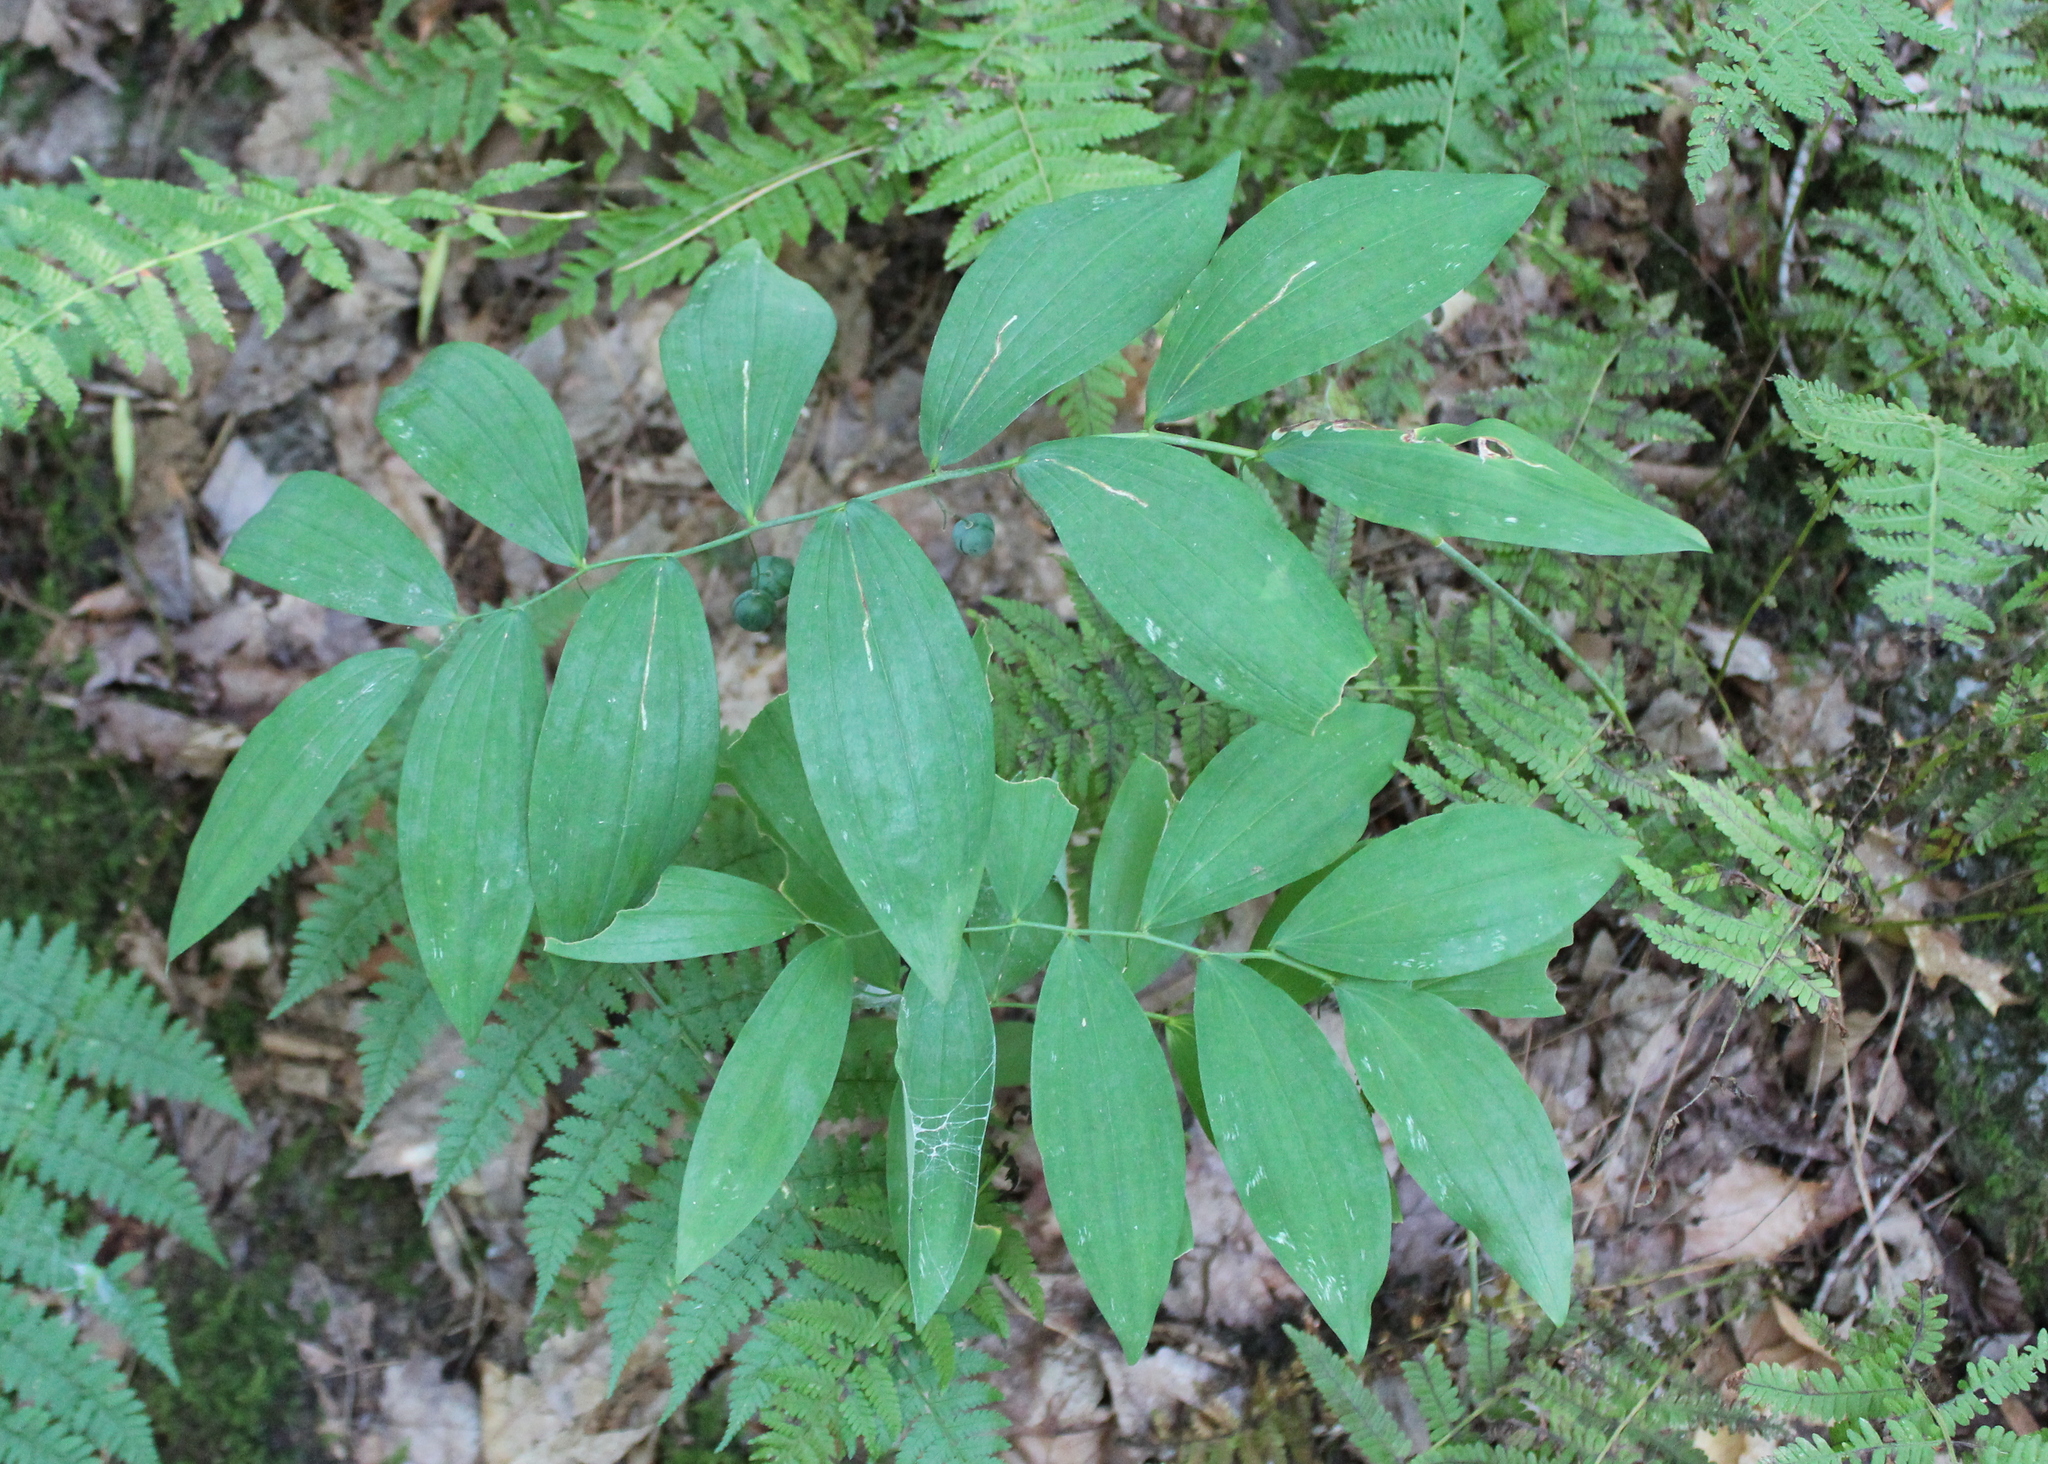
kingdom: Plantae
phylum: Tracheophyta
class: Liliopsida
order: Asparagales
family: Asparagaceae
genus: Polygonatum
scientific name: Polygonatum pubescens
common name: Downy solomon's seal
